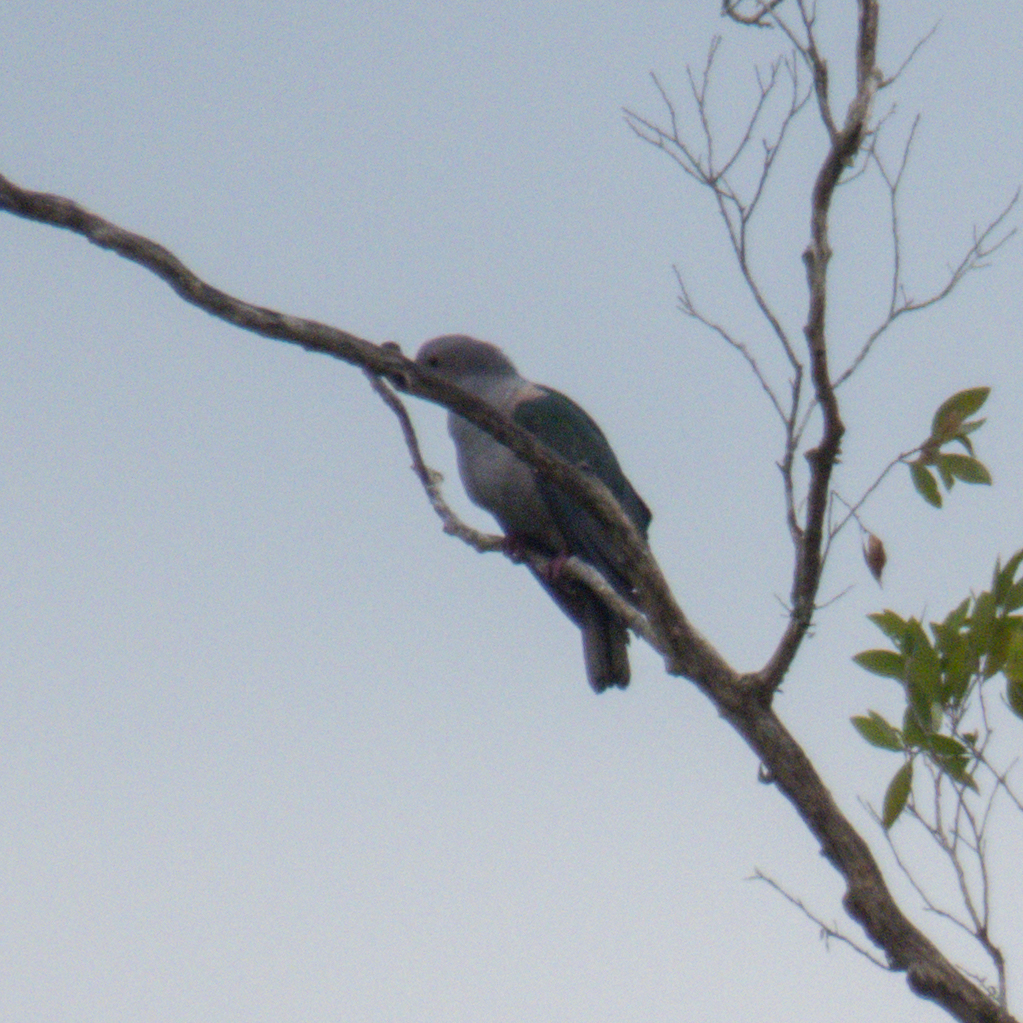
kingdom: Animalia
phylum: Chordata
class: Aves
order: Columbiformes
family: Columbidae
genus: Ducula
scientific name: Ducula aenea
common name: Green imperial pigeon
